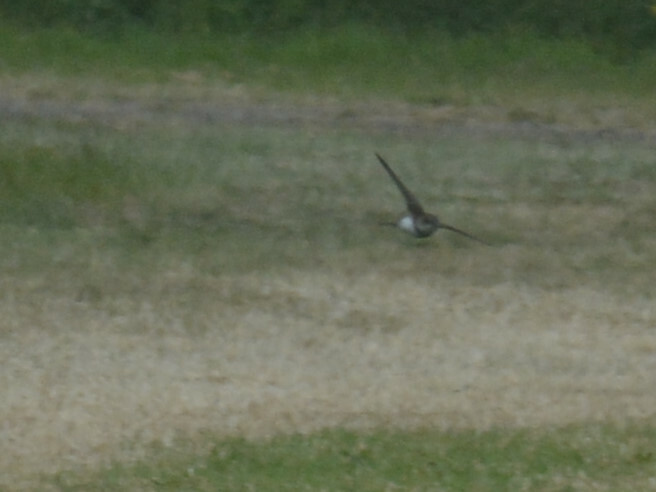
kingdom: Animalia
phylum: Chordata
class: Aves
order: Passeriformes
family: Hirundinidae
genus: Riparia
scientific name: Riparia riparia
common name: Sand martin
